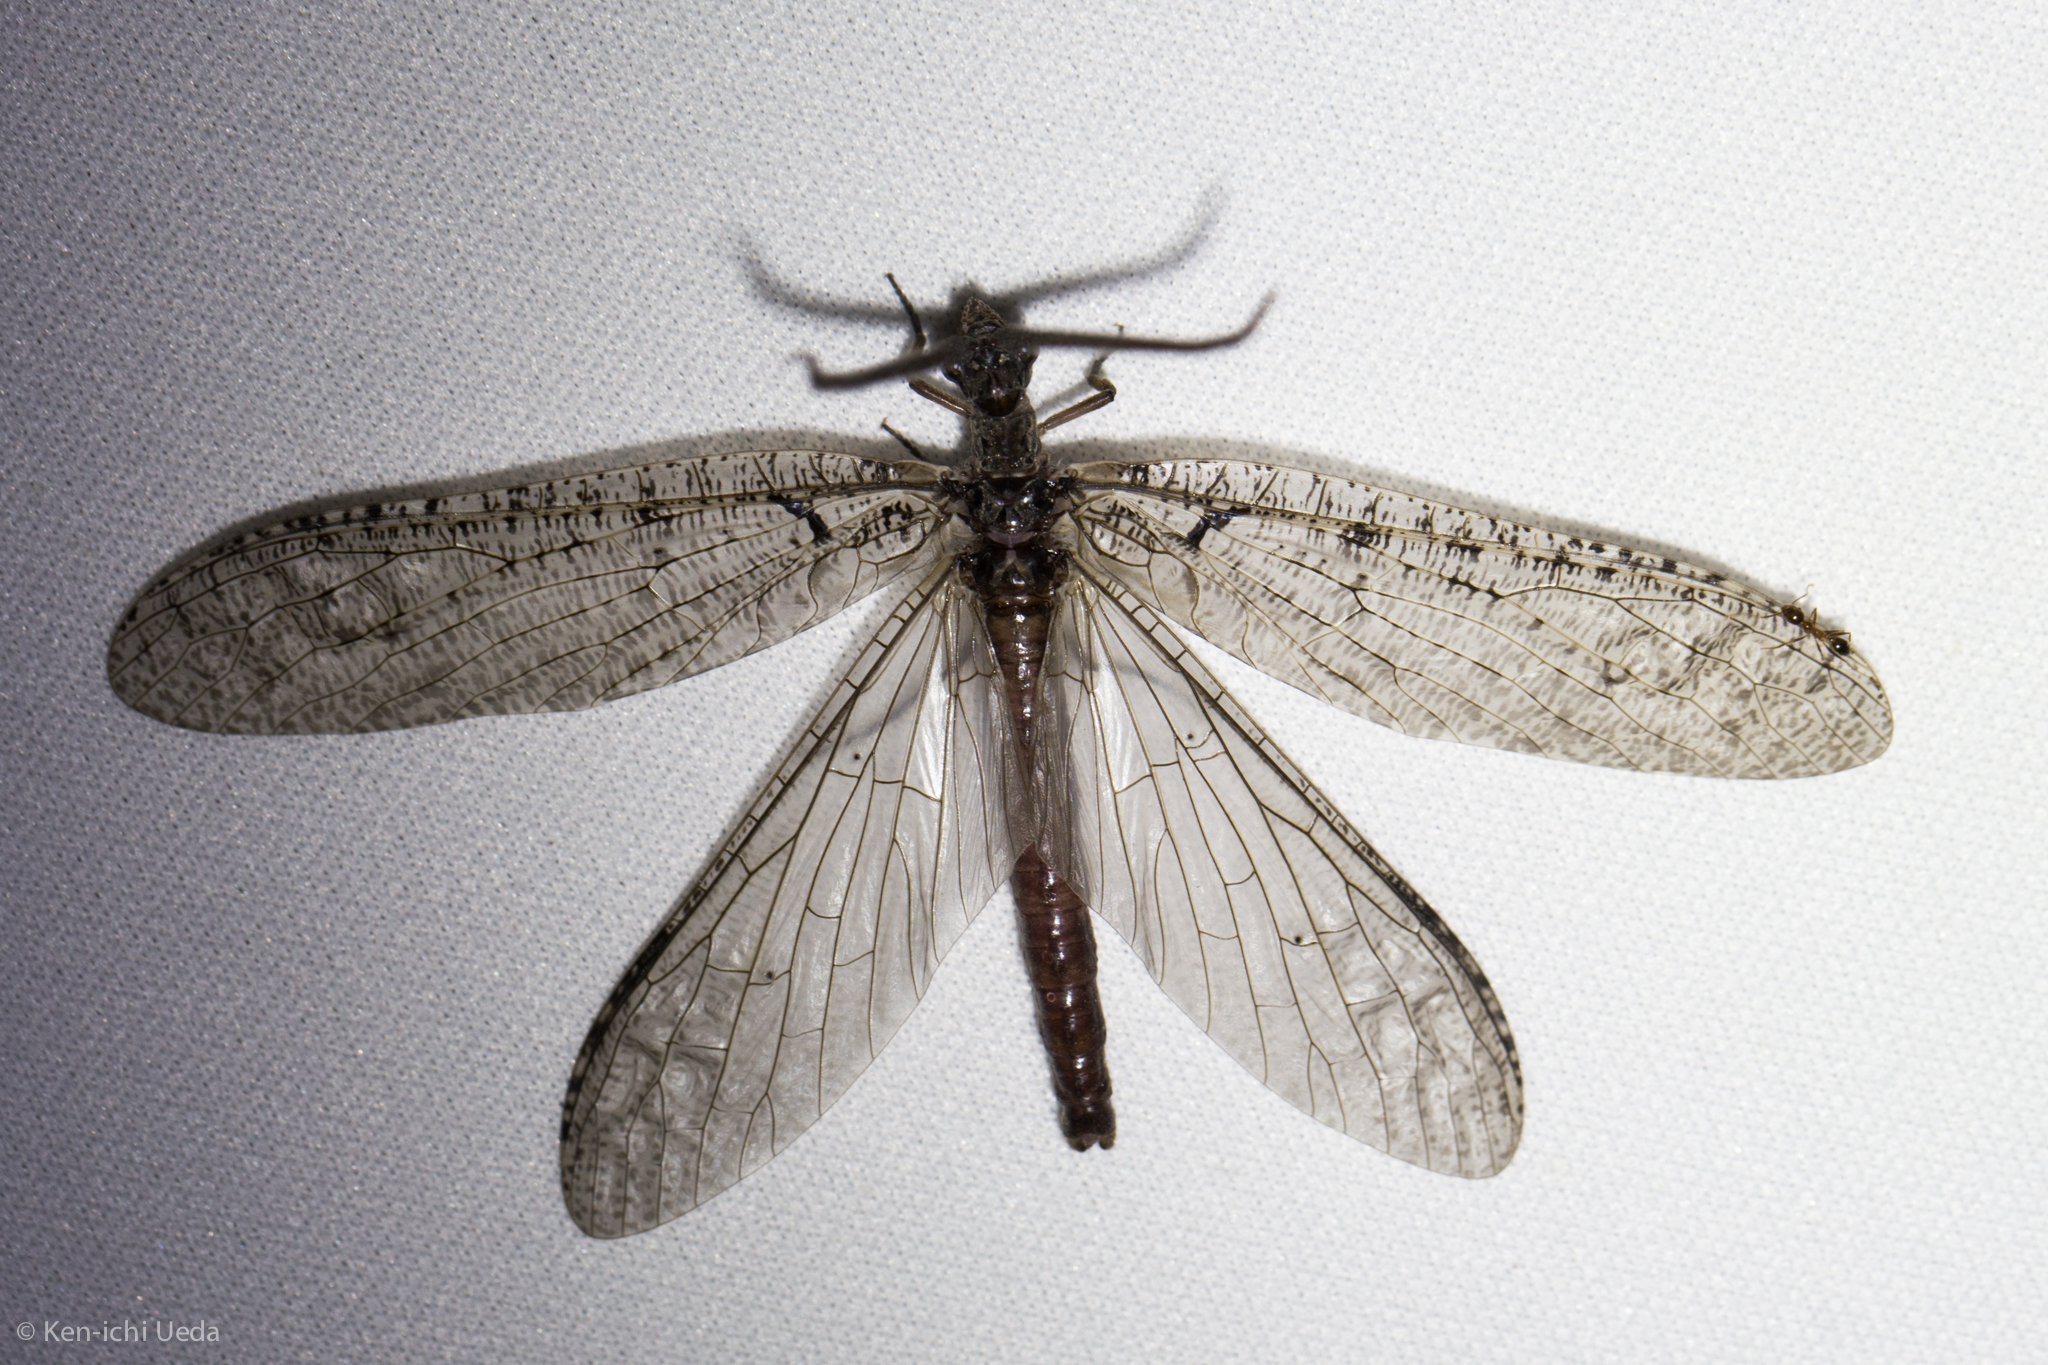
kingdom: Animalia
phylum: Arthropoda
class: Insecta
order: Megaloptera
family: Corydalidae
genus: Neohermes
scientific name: Neohermes filicornis
